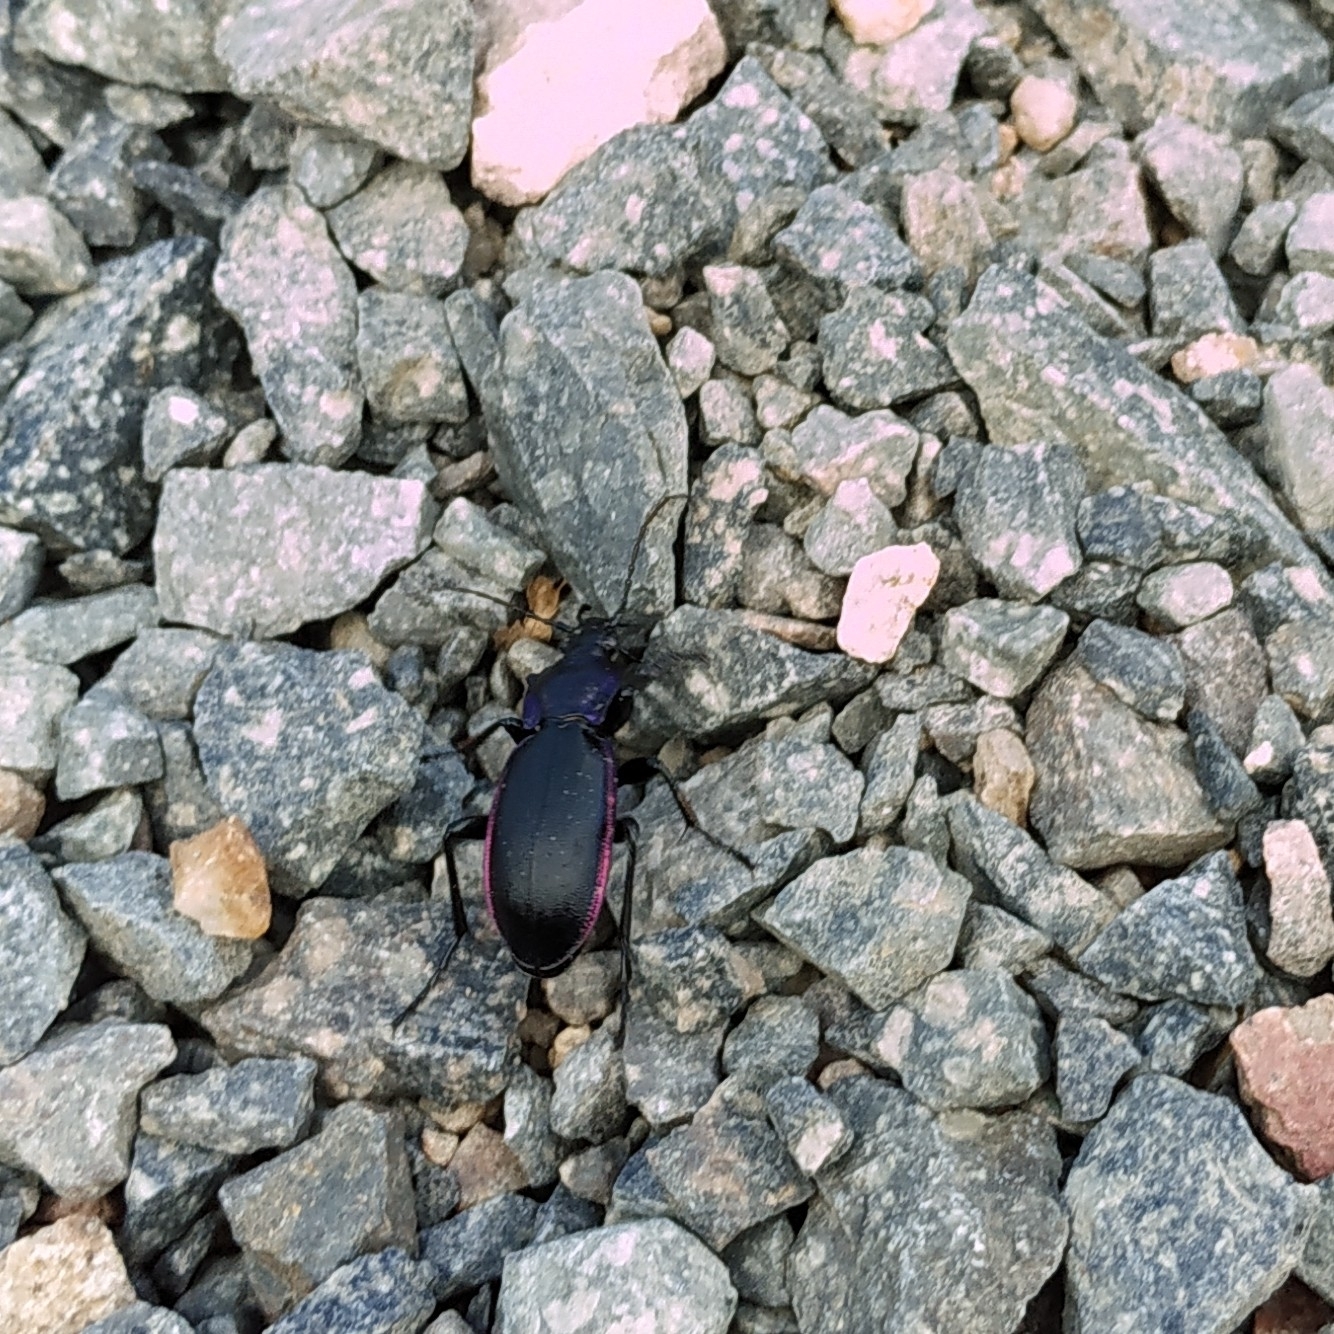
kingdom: Animalia
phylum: Arthropoda
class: Insecta
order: Coleoptera
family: Carabidae
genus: Carabus
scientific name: Carabus purpurascens
